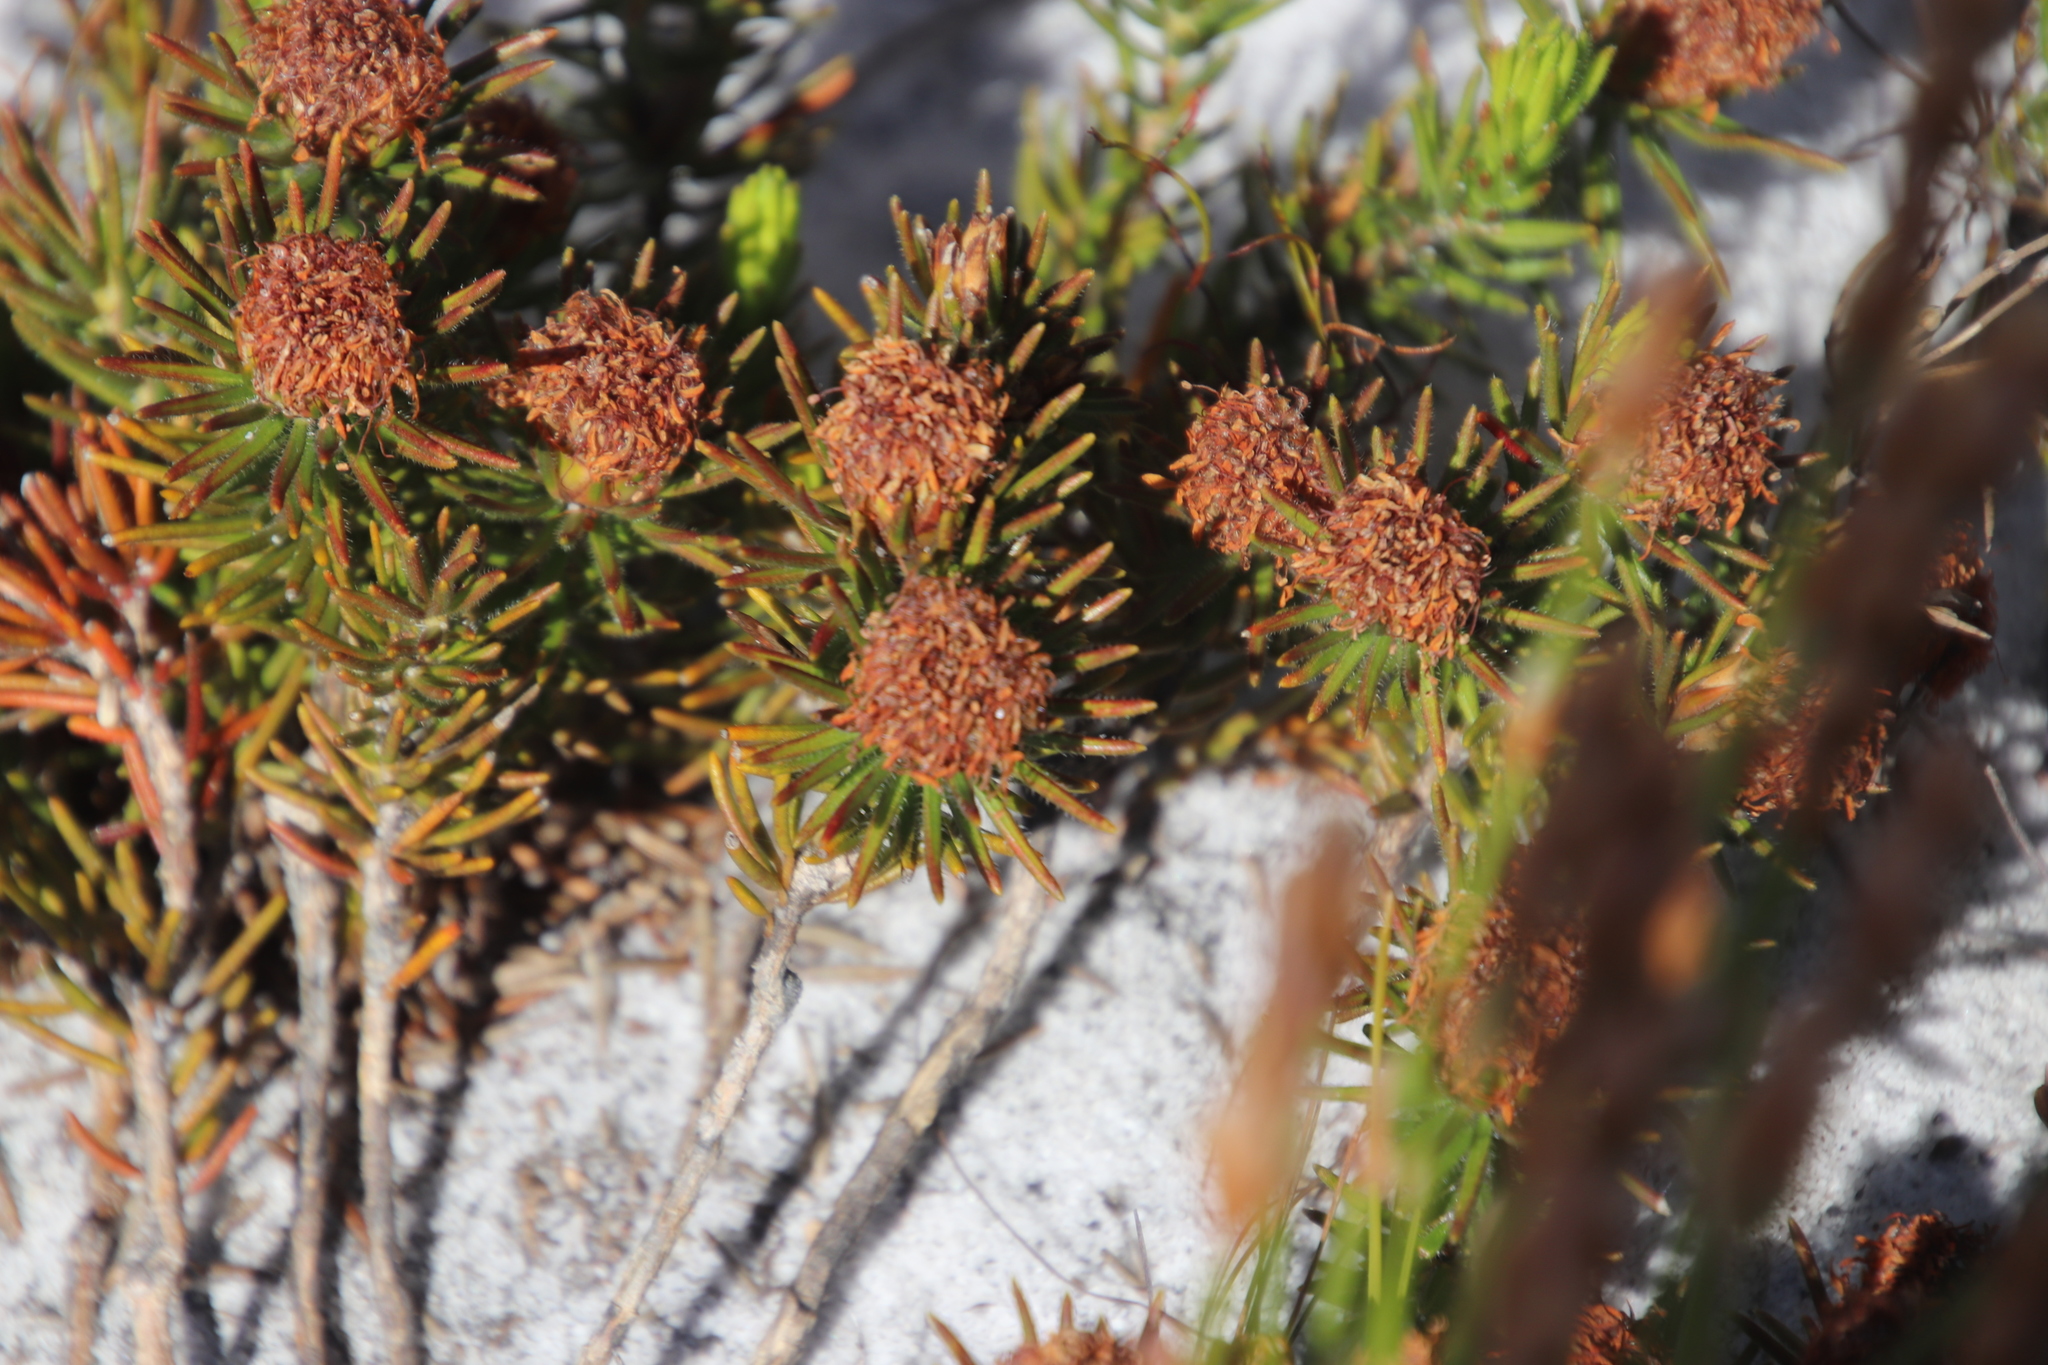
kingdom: Plantae
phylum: Tracheophyta
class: Magnoliopsida
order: Sapindales
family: Rutaceae
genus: Agathosma
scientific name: Agathosma hookeri
